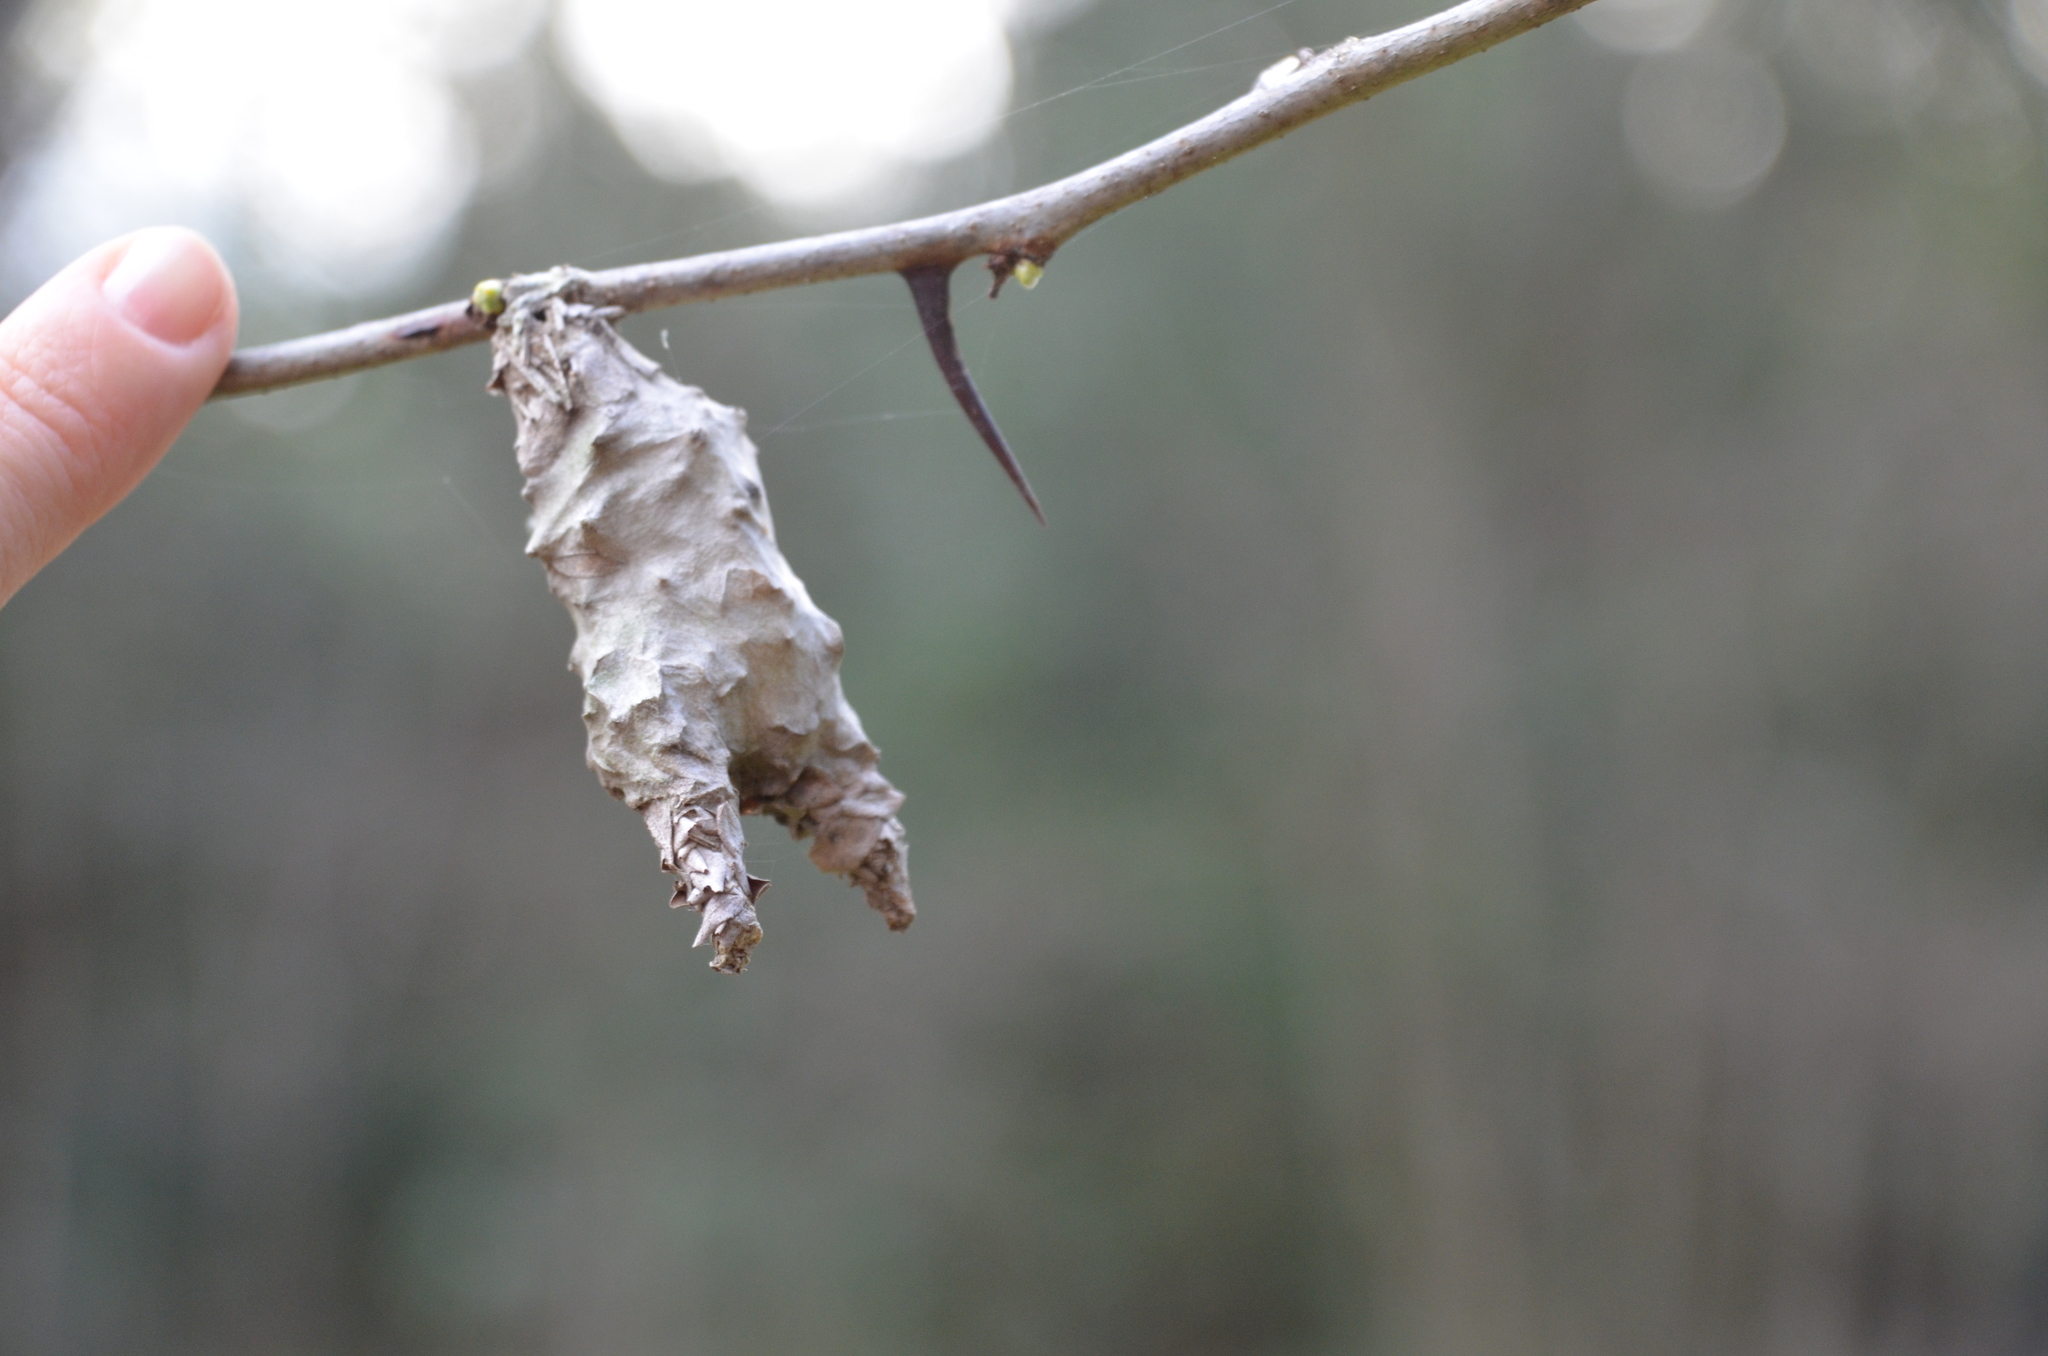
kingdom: Animalia
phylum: Arthropoda
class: Insecta
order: Lepidoptera
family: Psychidae
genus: Oiketicus
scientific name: Oiketicus
